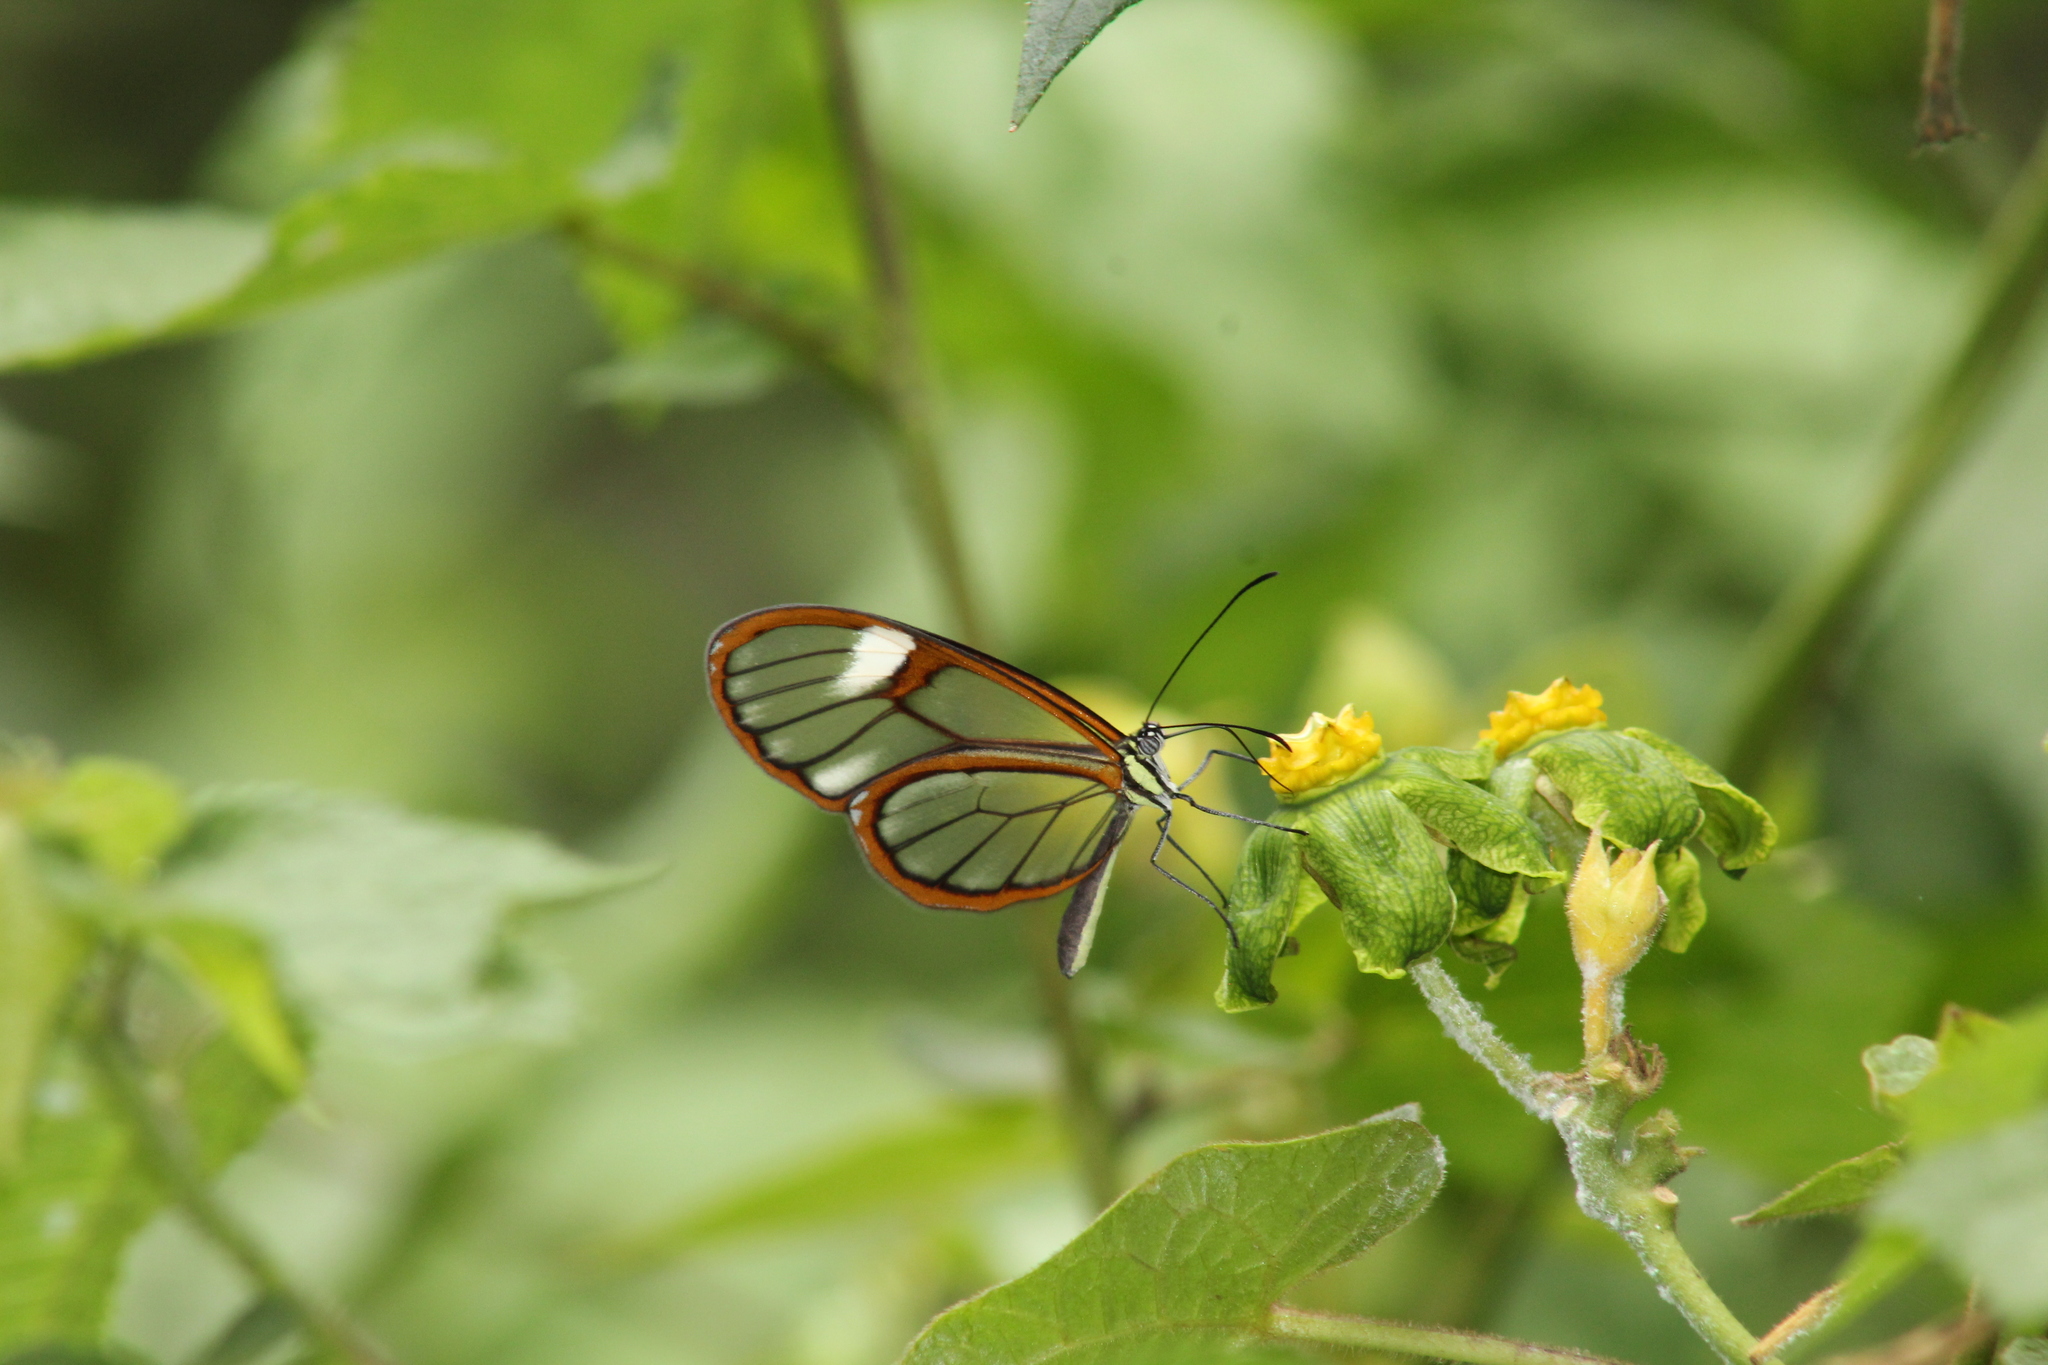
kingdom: Animalia
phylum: Arthropoda
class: Insecta
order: Lepidoptera
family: Nymphalidae
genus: Episcada
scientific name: Episcada salvinia
